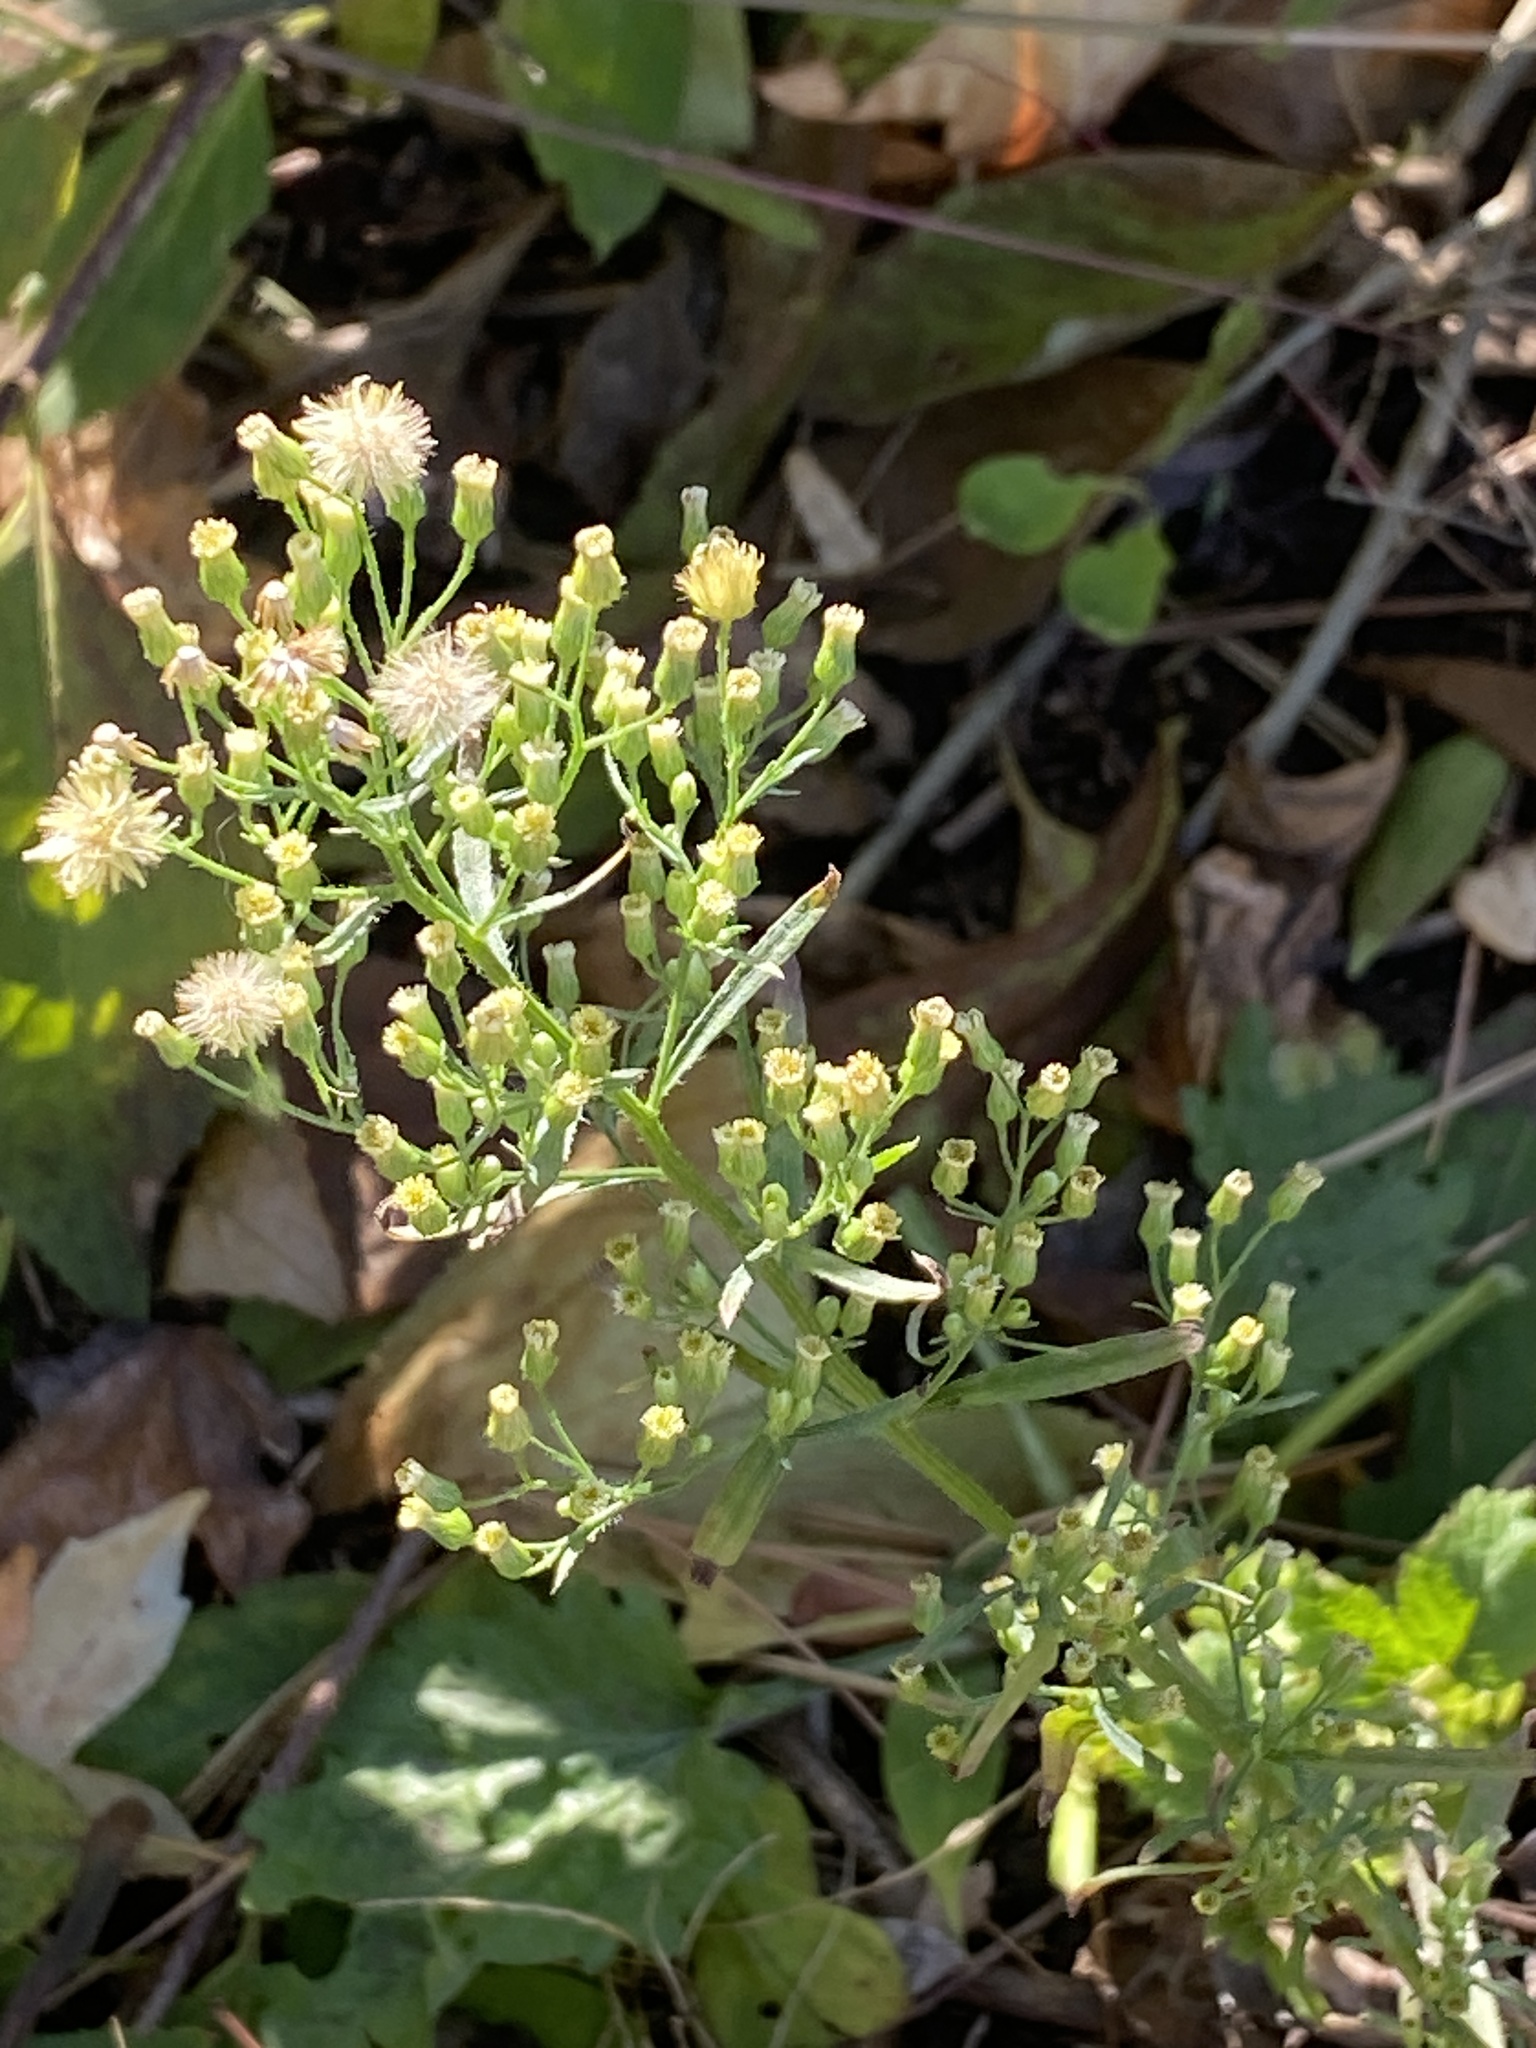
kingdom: Plantae
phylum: Tracheophyta
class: Magnoliopsida
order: Asterales
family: Asteraceae
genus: Erigeron
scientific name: Erigeron canadensis
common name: Canadian fleabane
